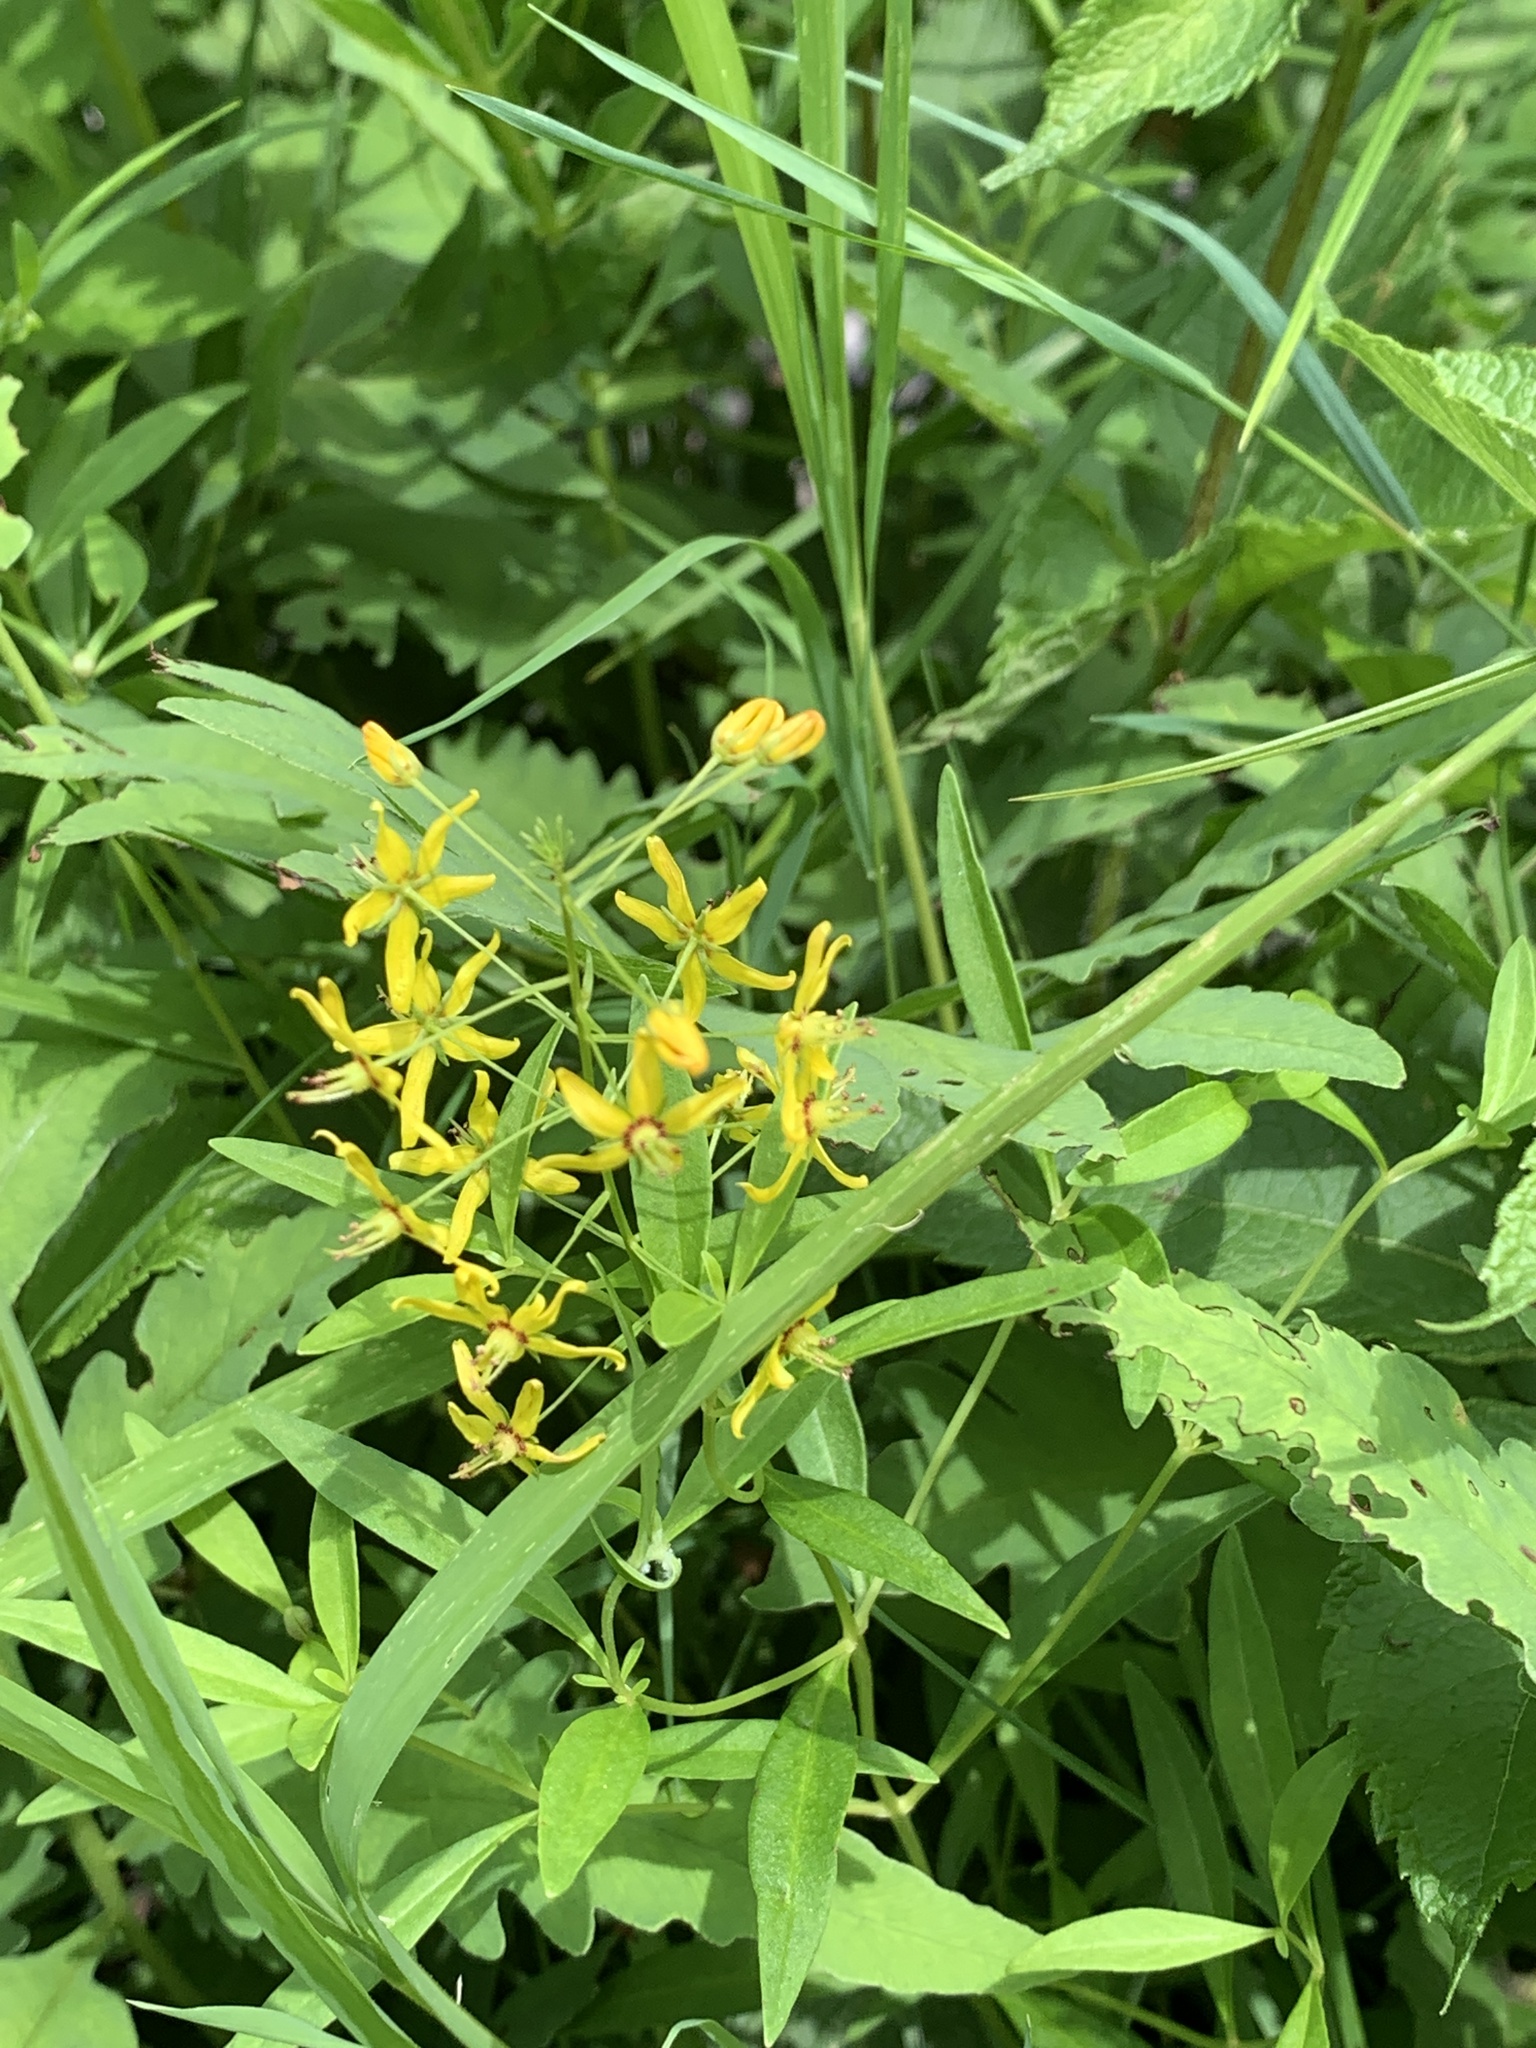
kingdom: Plantae
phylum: Tracheophyta
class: Magnoliopsida
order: Ericales
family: Primulaceae
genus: Lysimachia
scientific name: Lysimachia terrestris
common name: Lake loosestrife
